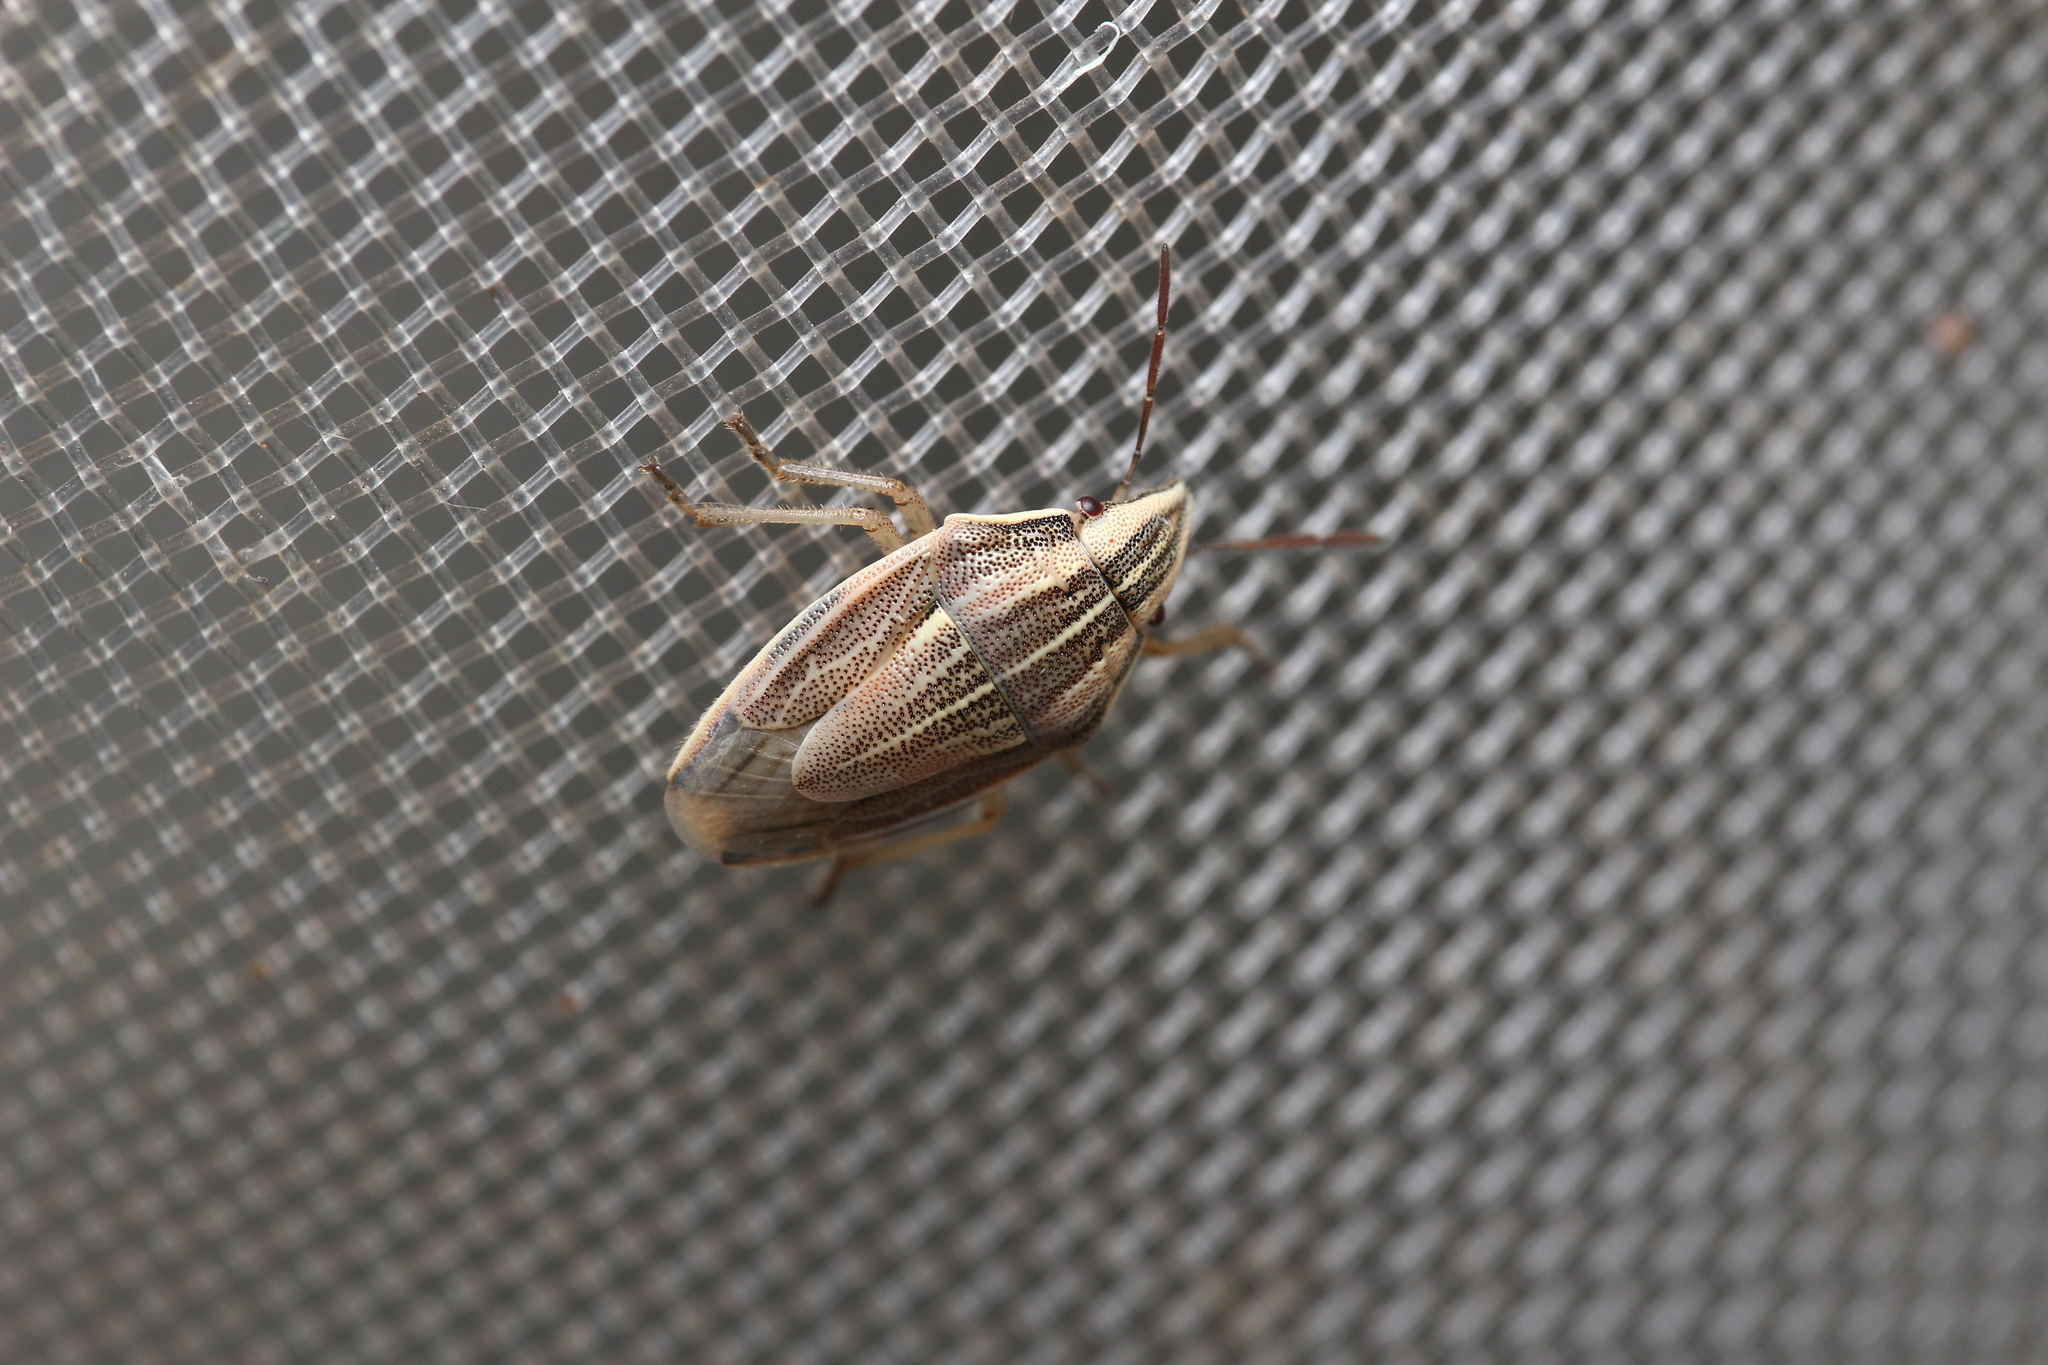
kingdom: Animalia
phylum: Arthropoda
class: Insecta
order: Hemiptera
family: Pentatomidae
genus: Aelia
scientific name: Aelia acuminata
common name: Bishop's mitre
